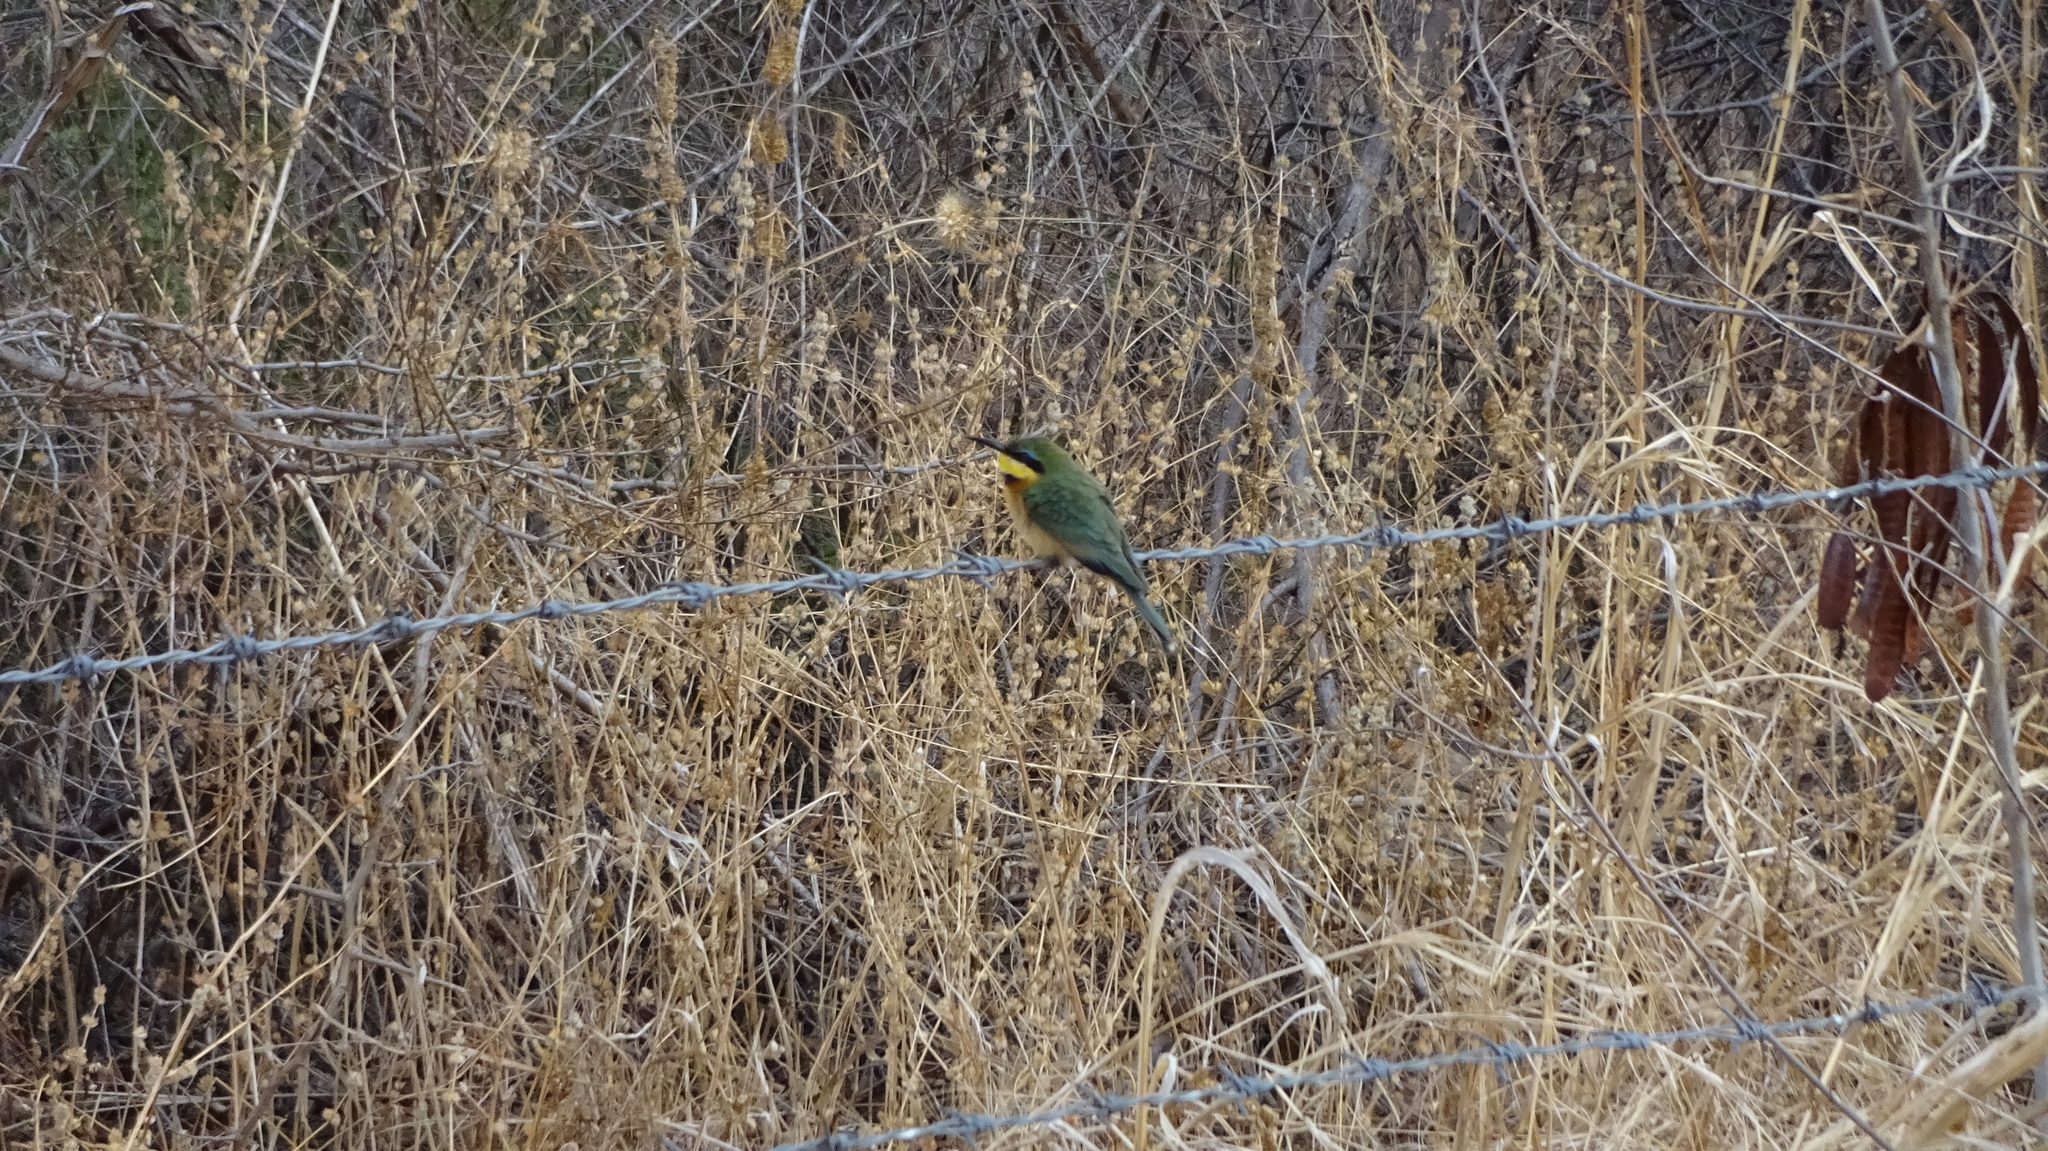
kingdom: Animalia
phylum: Chordata
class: Aves
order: Coraciiformes
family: Meropidae
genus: Merops
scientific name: Merops pusillus
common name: Little bee-eater
